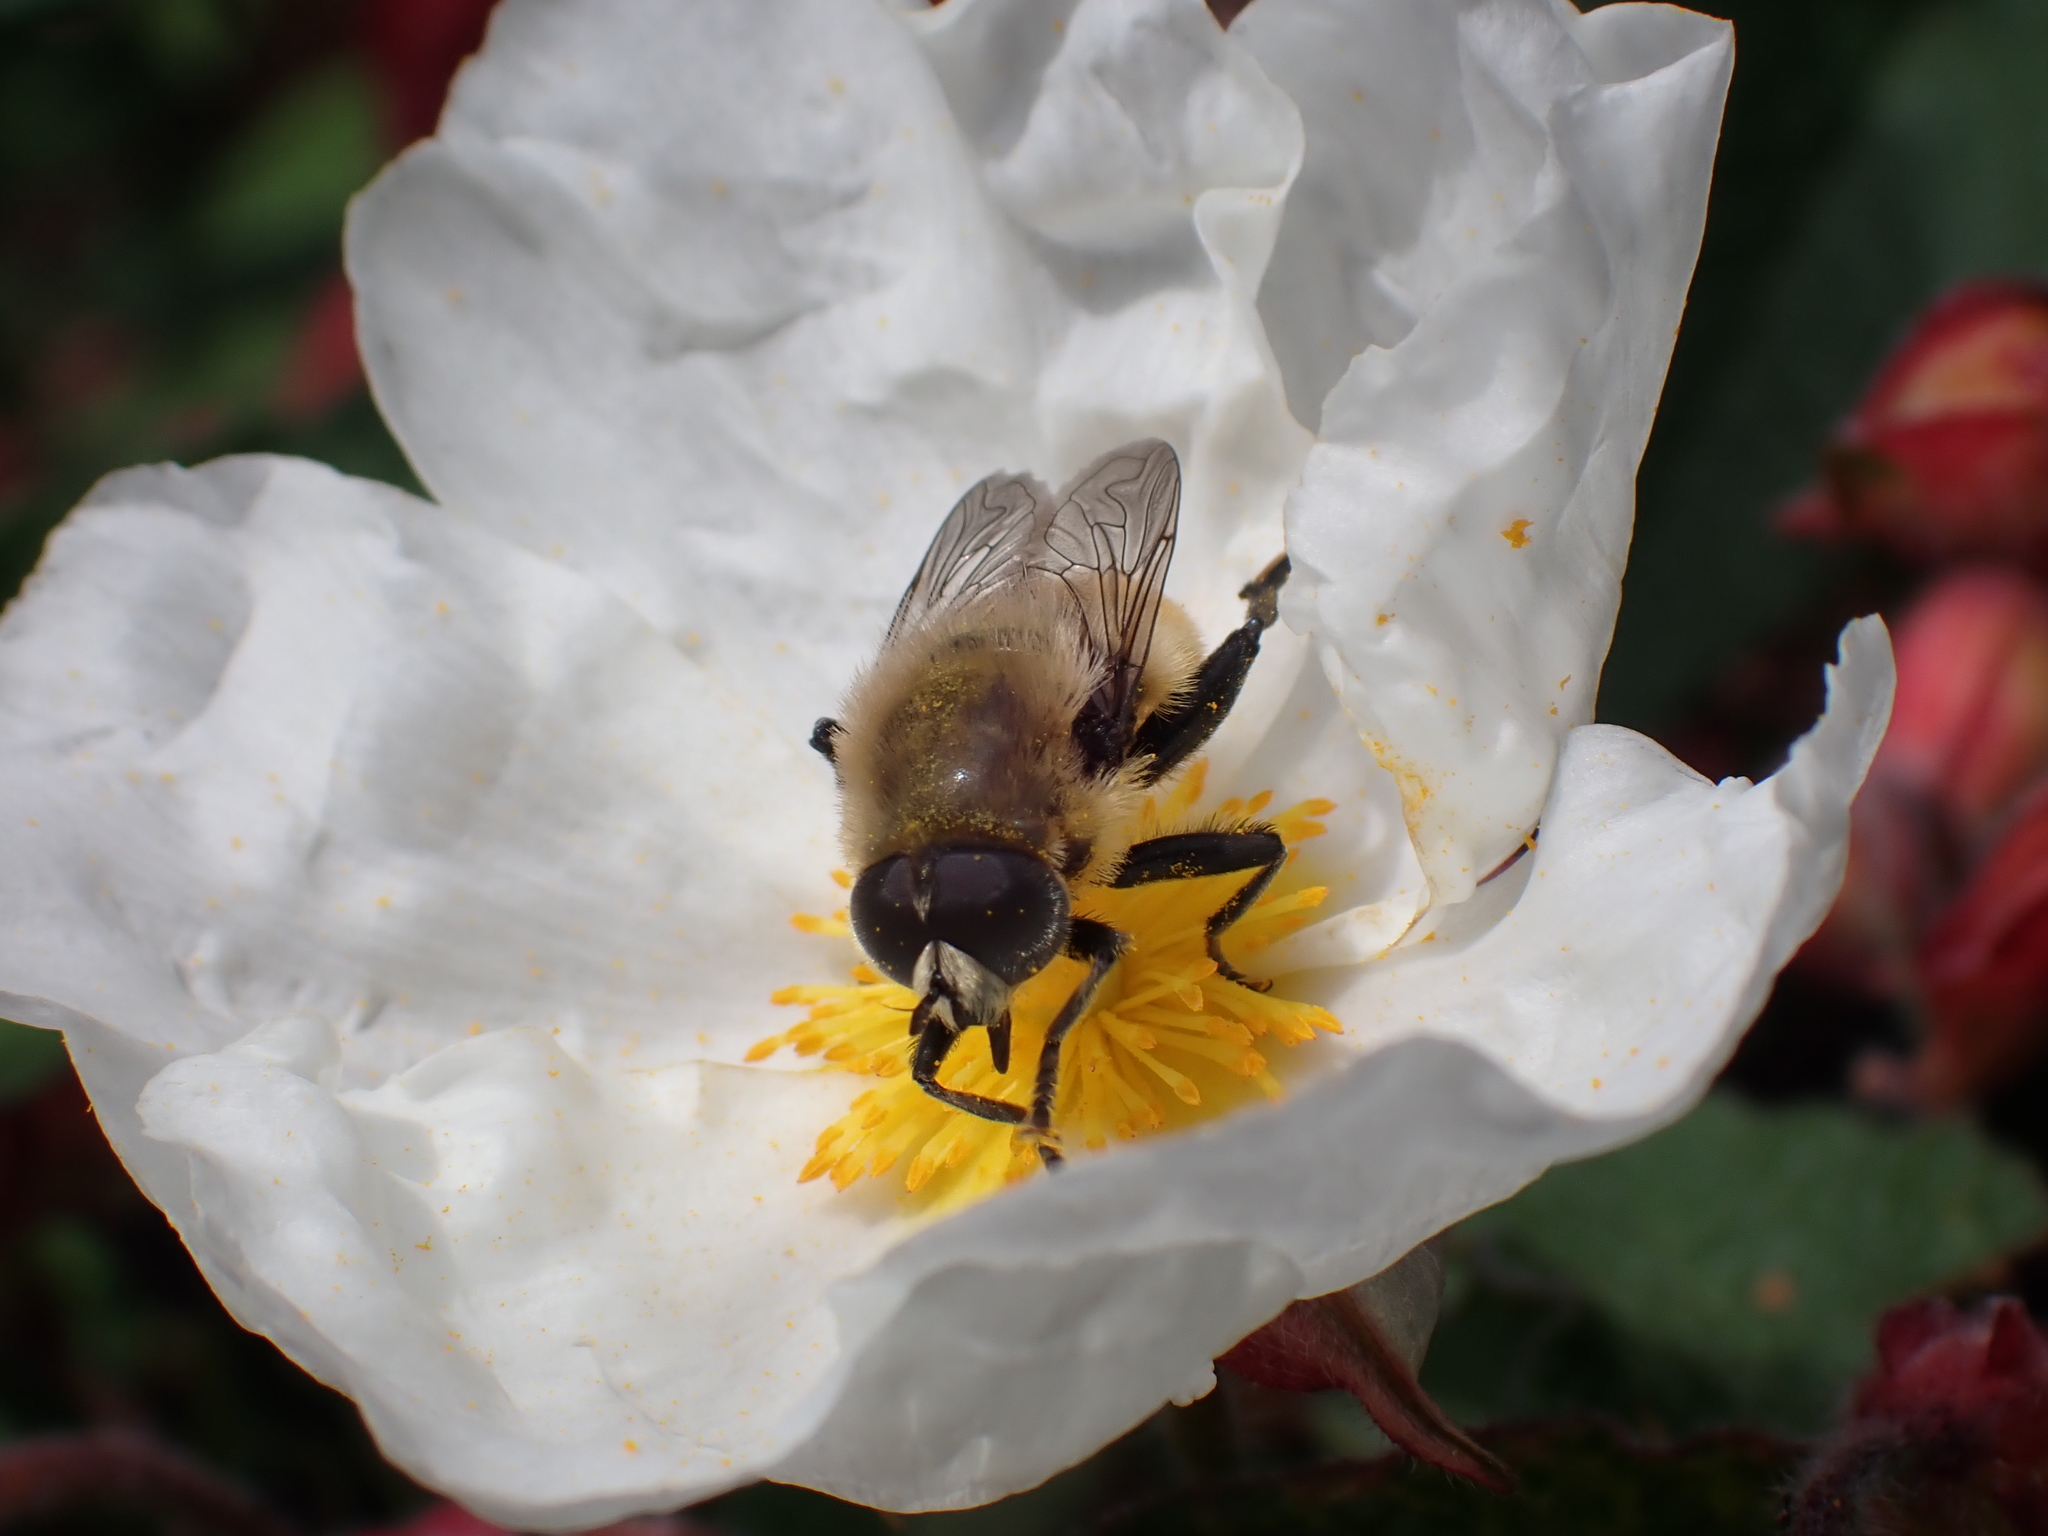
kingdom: Animalia
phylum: Arthropoda
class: Insecta
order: Diptera
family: Syrphidae
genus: Merodon
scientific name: Merodon equestris
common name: Greater bulb-fly
